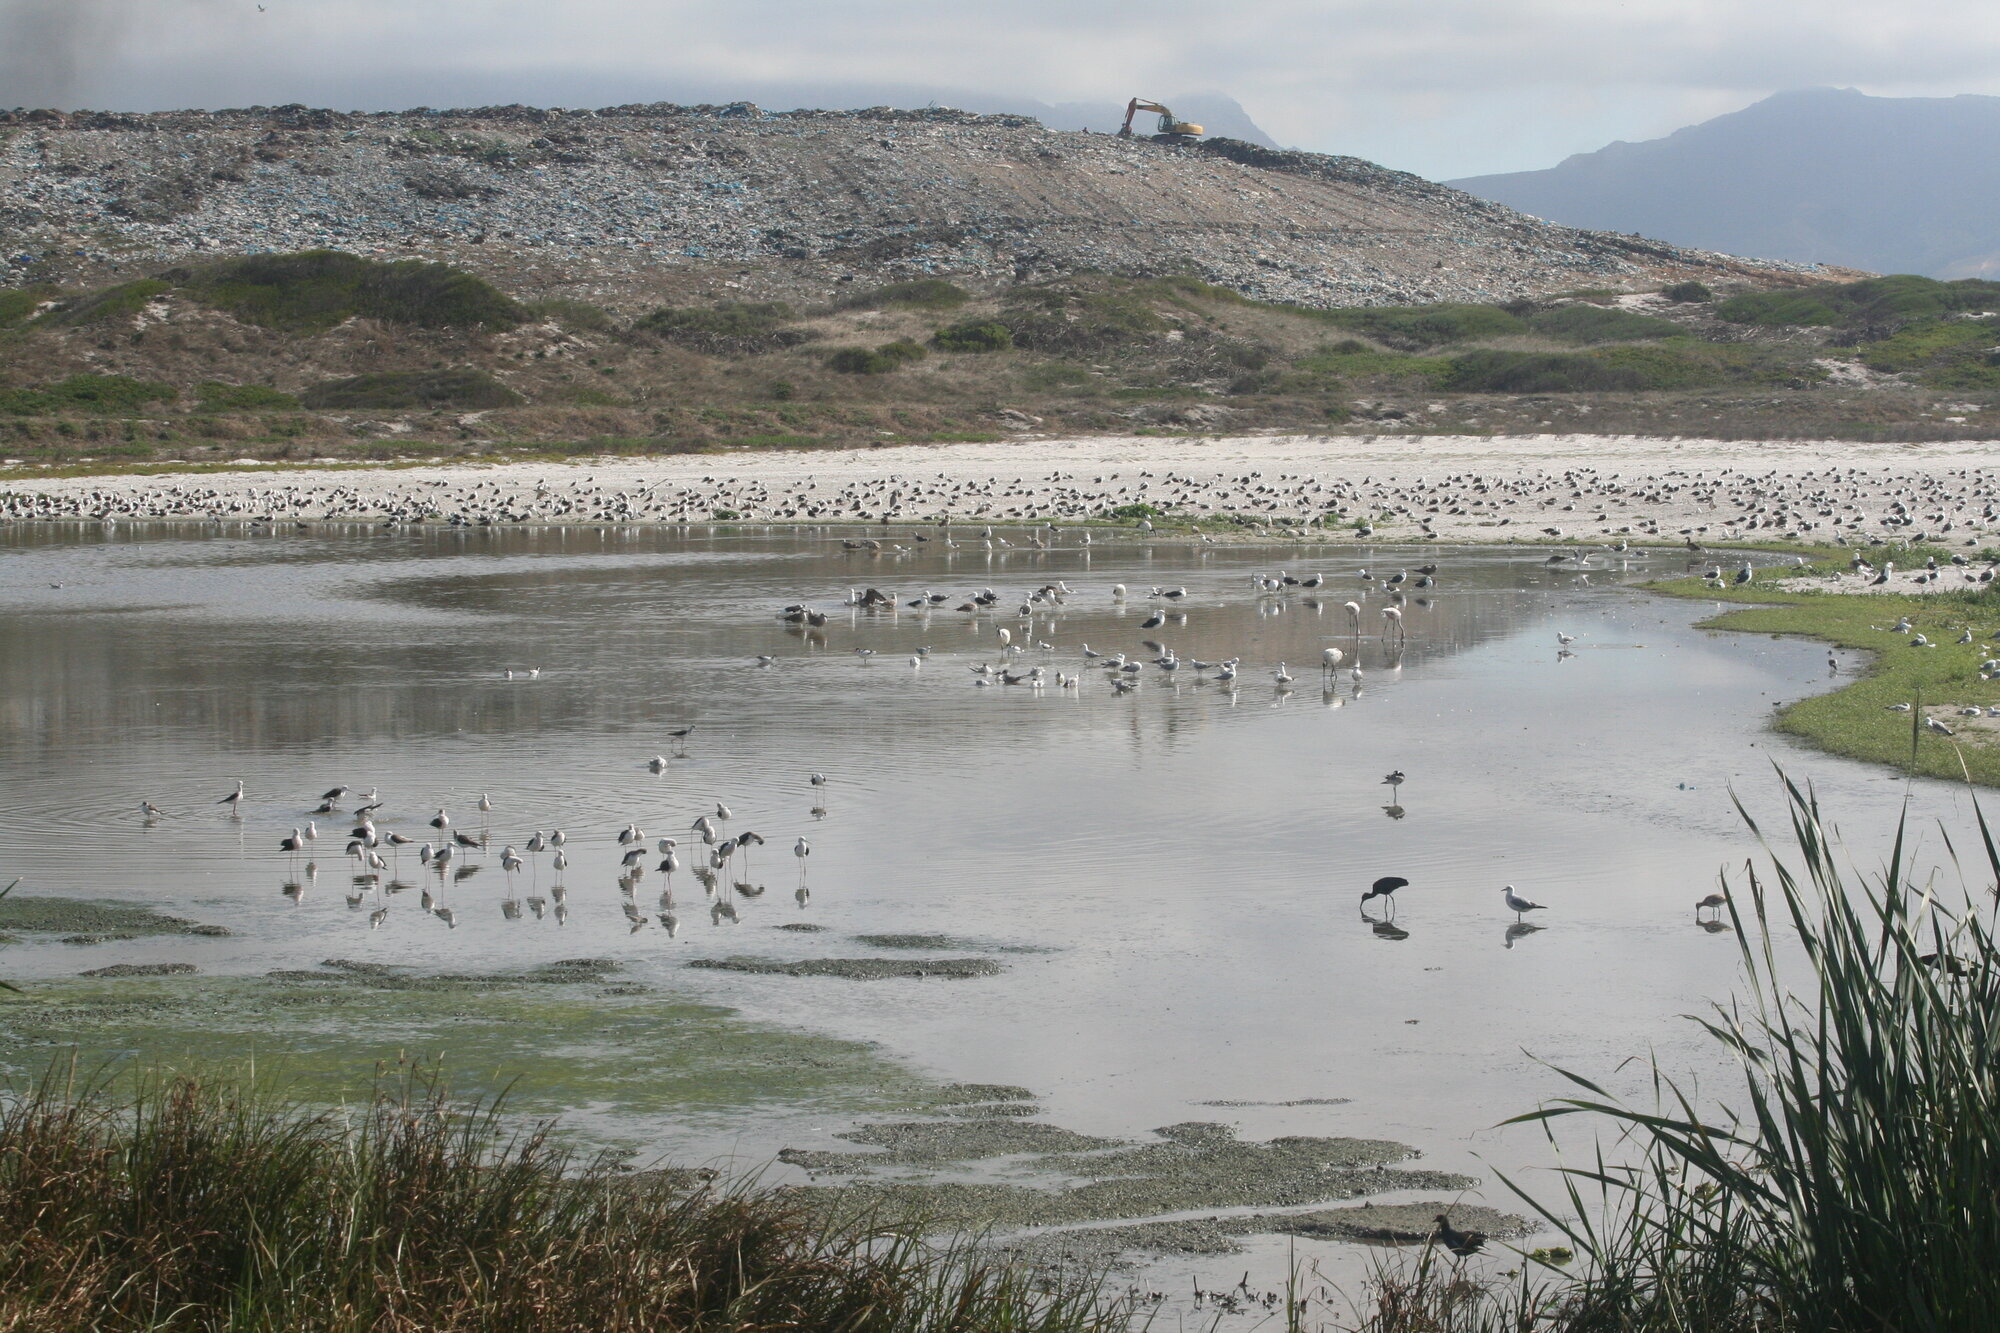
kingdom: Animalia
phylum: Chordata
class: Aves
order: Phoenicopteriformes
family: Phoenicopteridae
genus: Phoeniconaias
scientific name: Phoeniconaias minor
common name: Lesser flamingo
